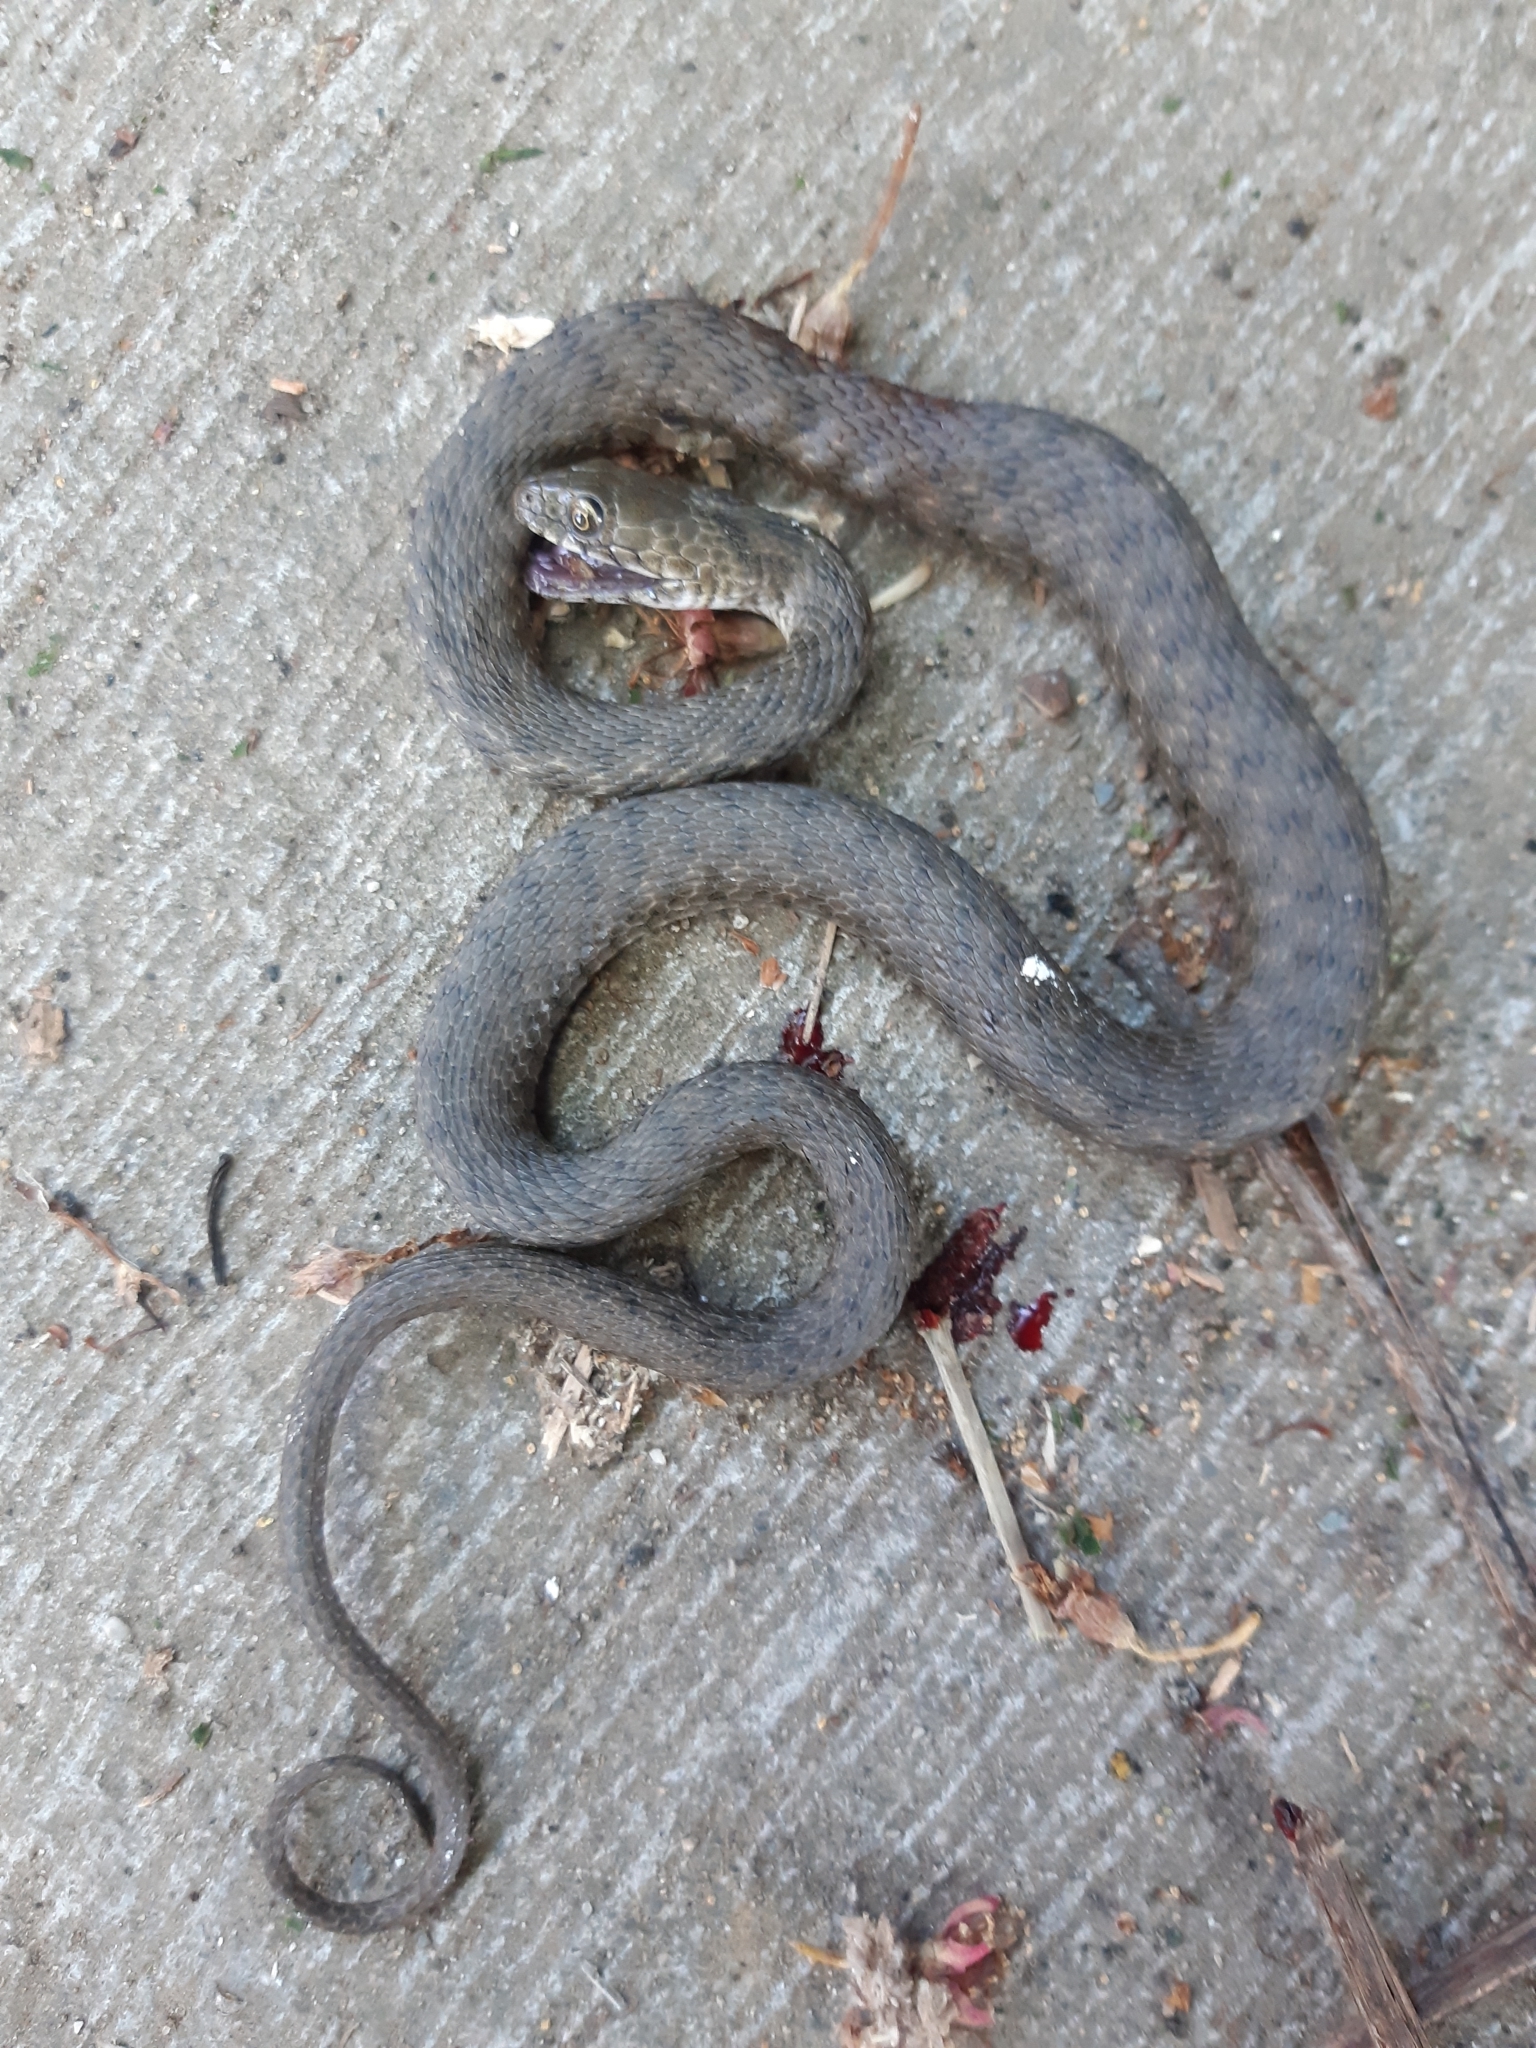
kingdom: Animalia
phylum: Chordata
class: Squamata
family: Colubridae
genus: Natrix
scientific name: Natrix tessellata
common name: Dice snake
